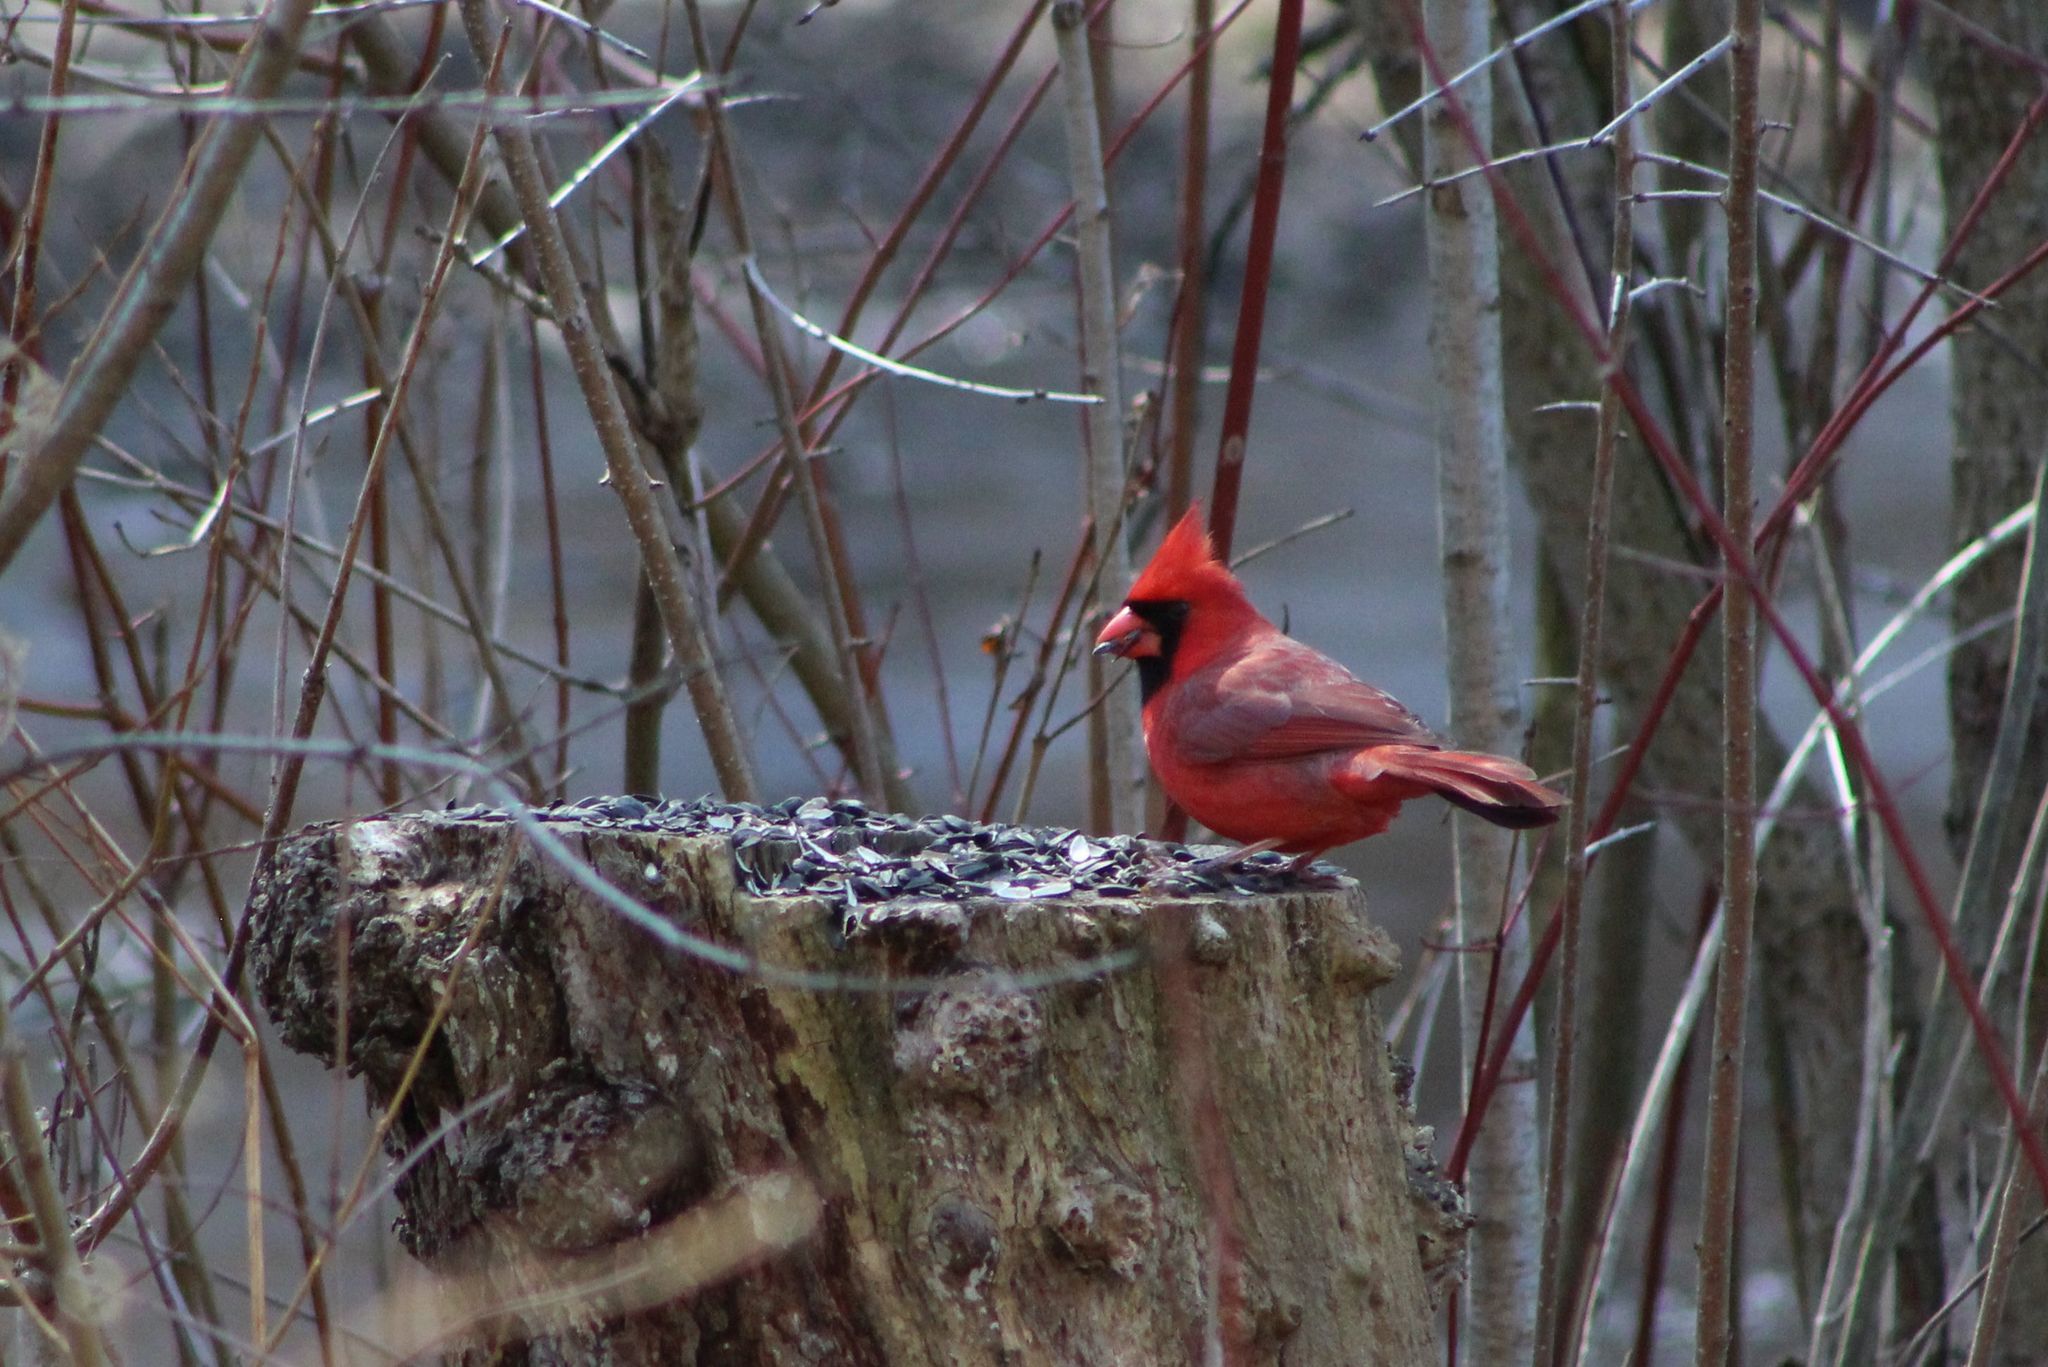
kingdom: Animalia
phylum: Chordata
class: Aves
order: Passeriformes
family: Cardinalidae
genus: Cardinalis
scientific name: Cardinalis cardinalis
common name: Northern cardinal
